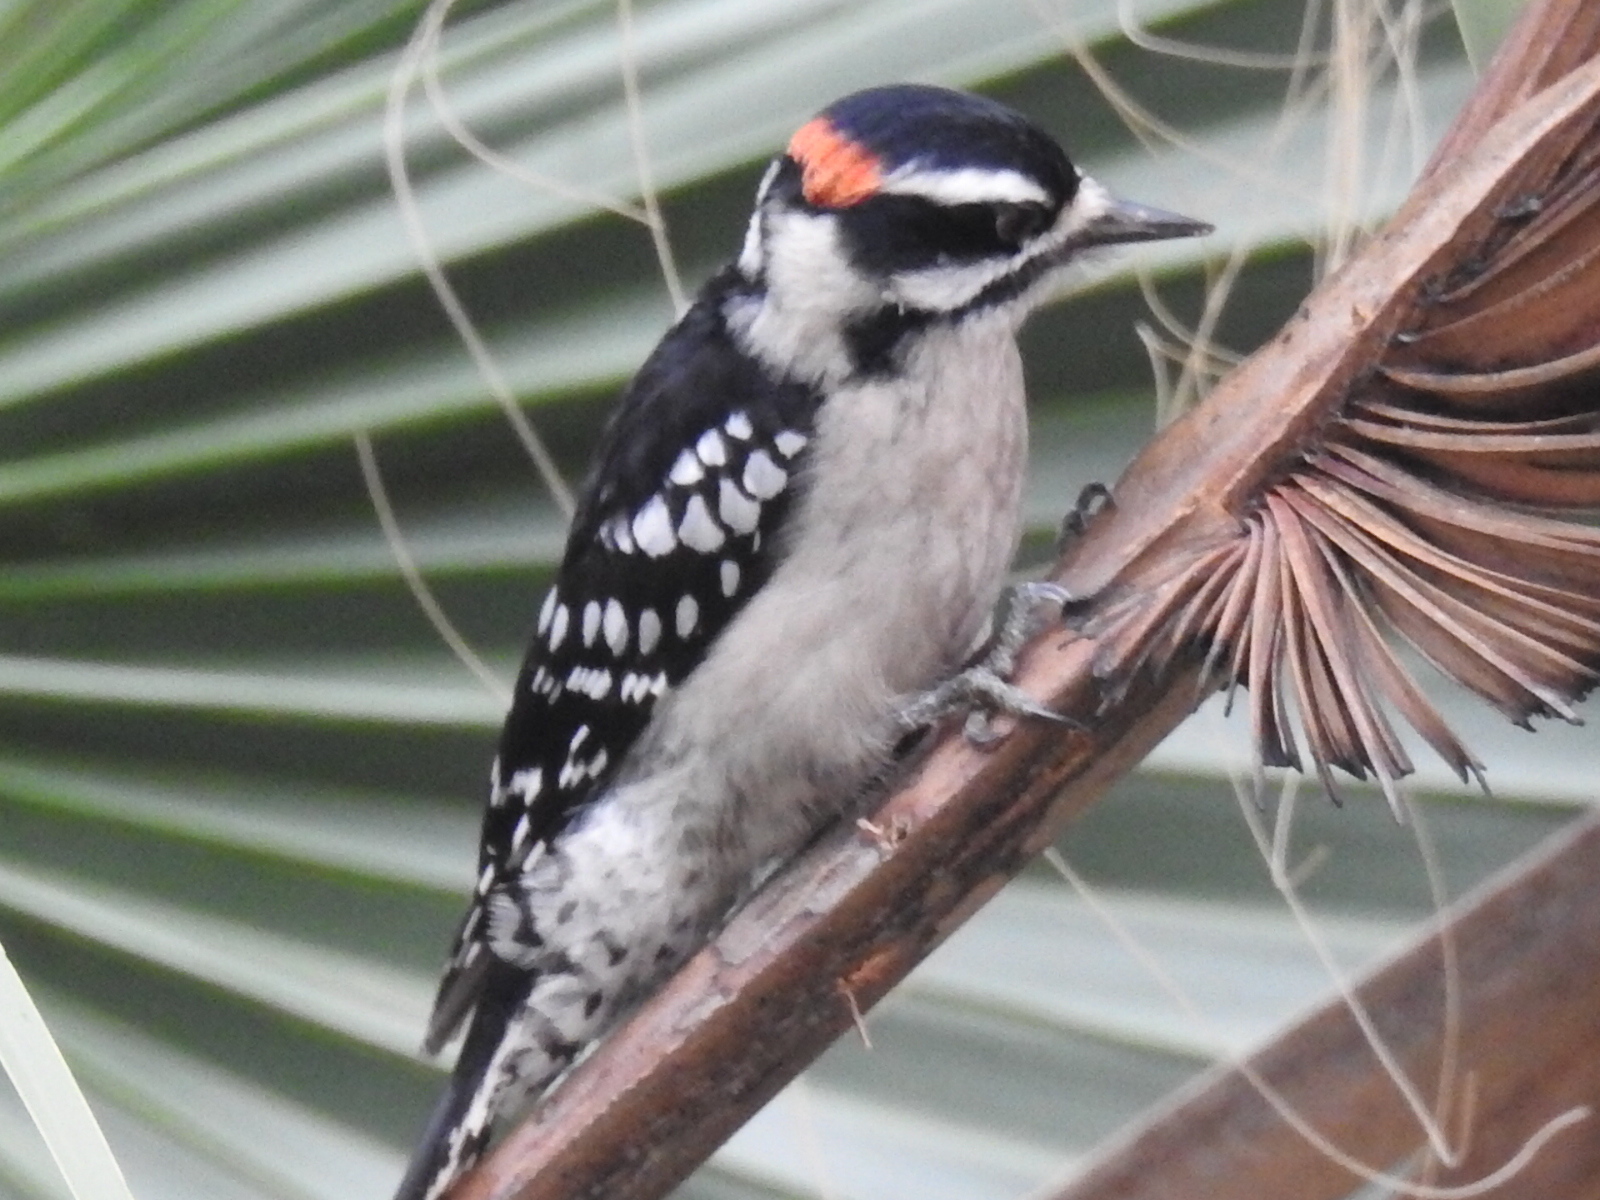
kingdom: Animalia
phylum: Chordata
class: Aves
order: Piciformes
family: Picidae
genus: Dryobates
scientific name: Dryobates pubescens
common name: Downy woodpecker
